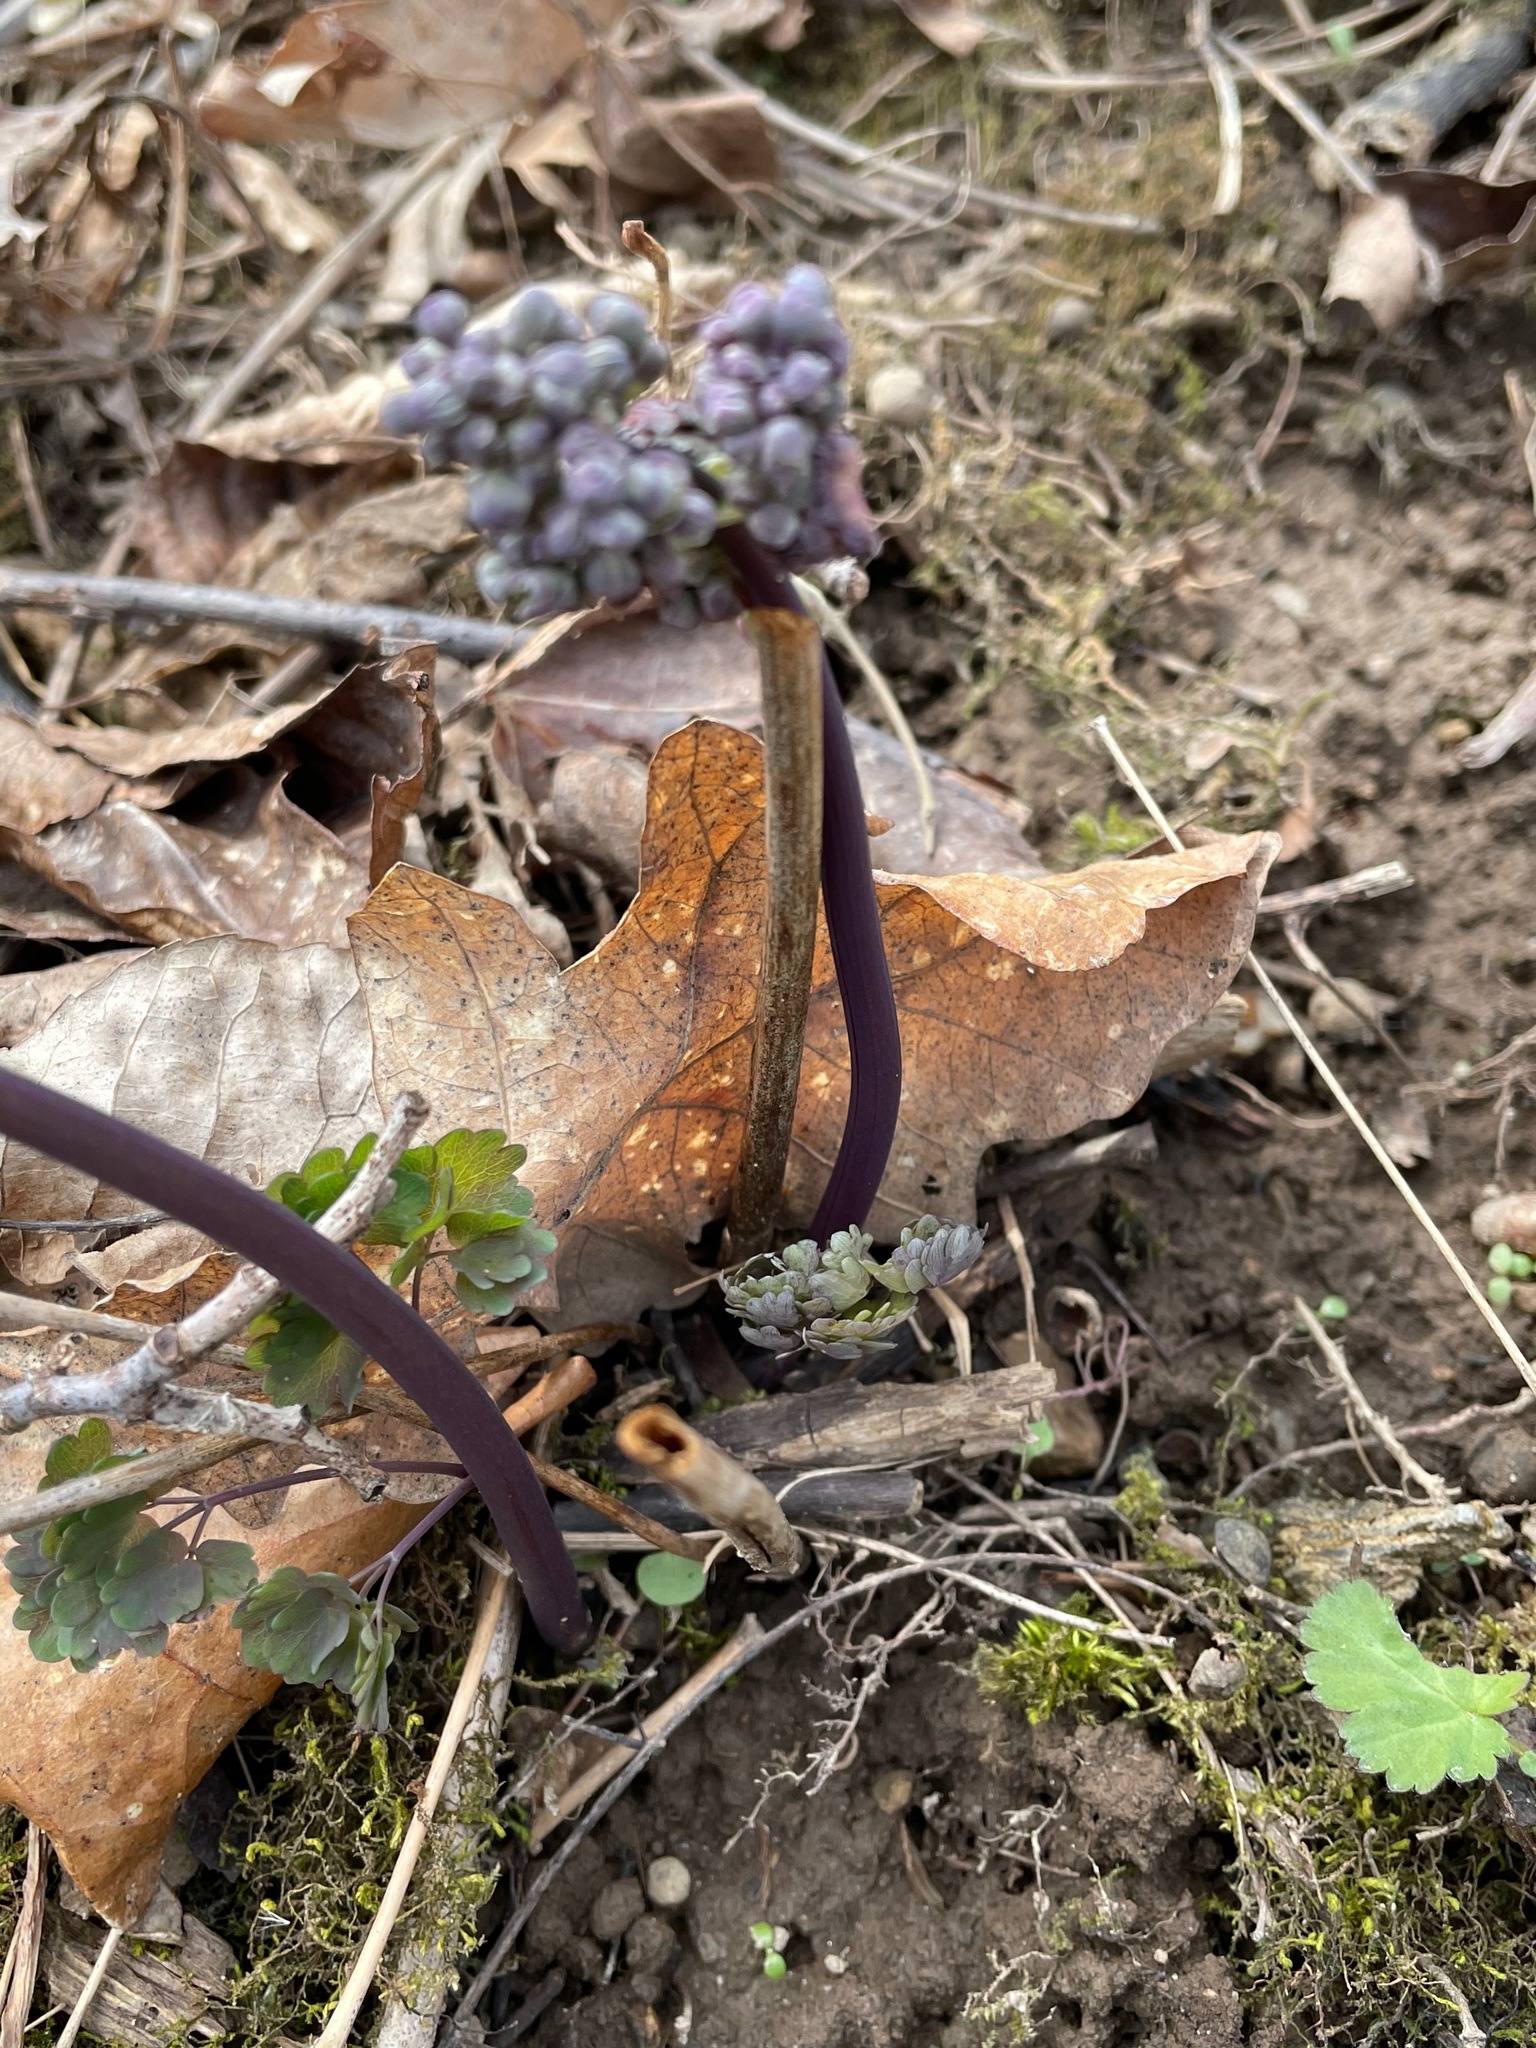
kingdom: Plantae
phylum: Tracheophyta
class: Magnoliopsida
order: Ranunculales
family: Ranunculaceae
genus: Thalictrum
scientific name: Thalictrum dioicum
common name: Early meadow-rue
